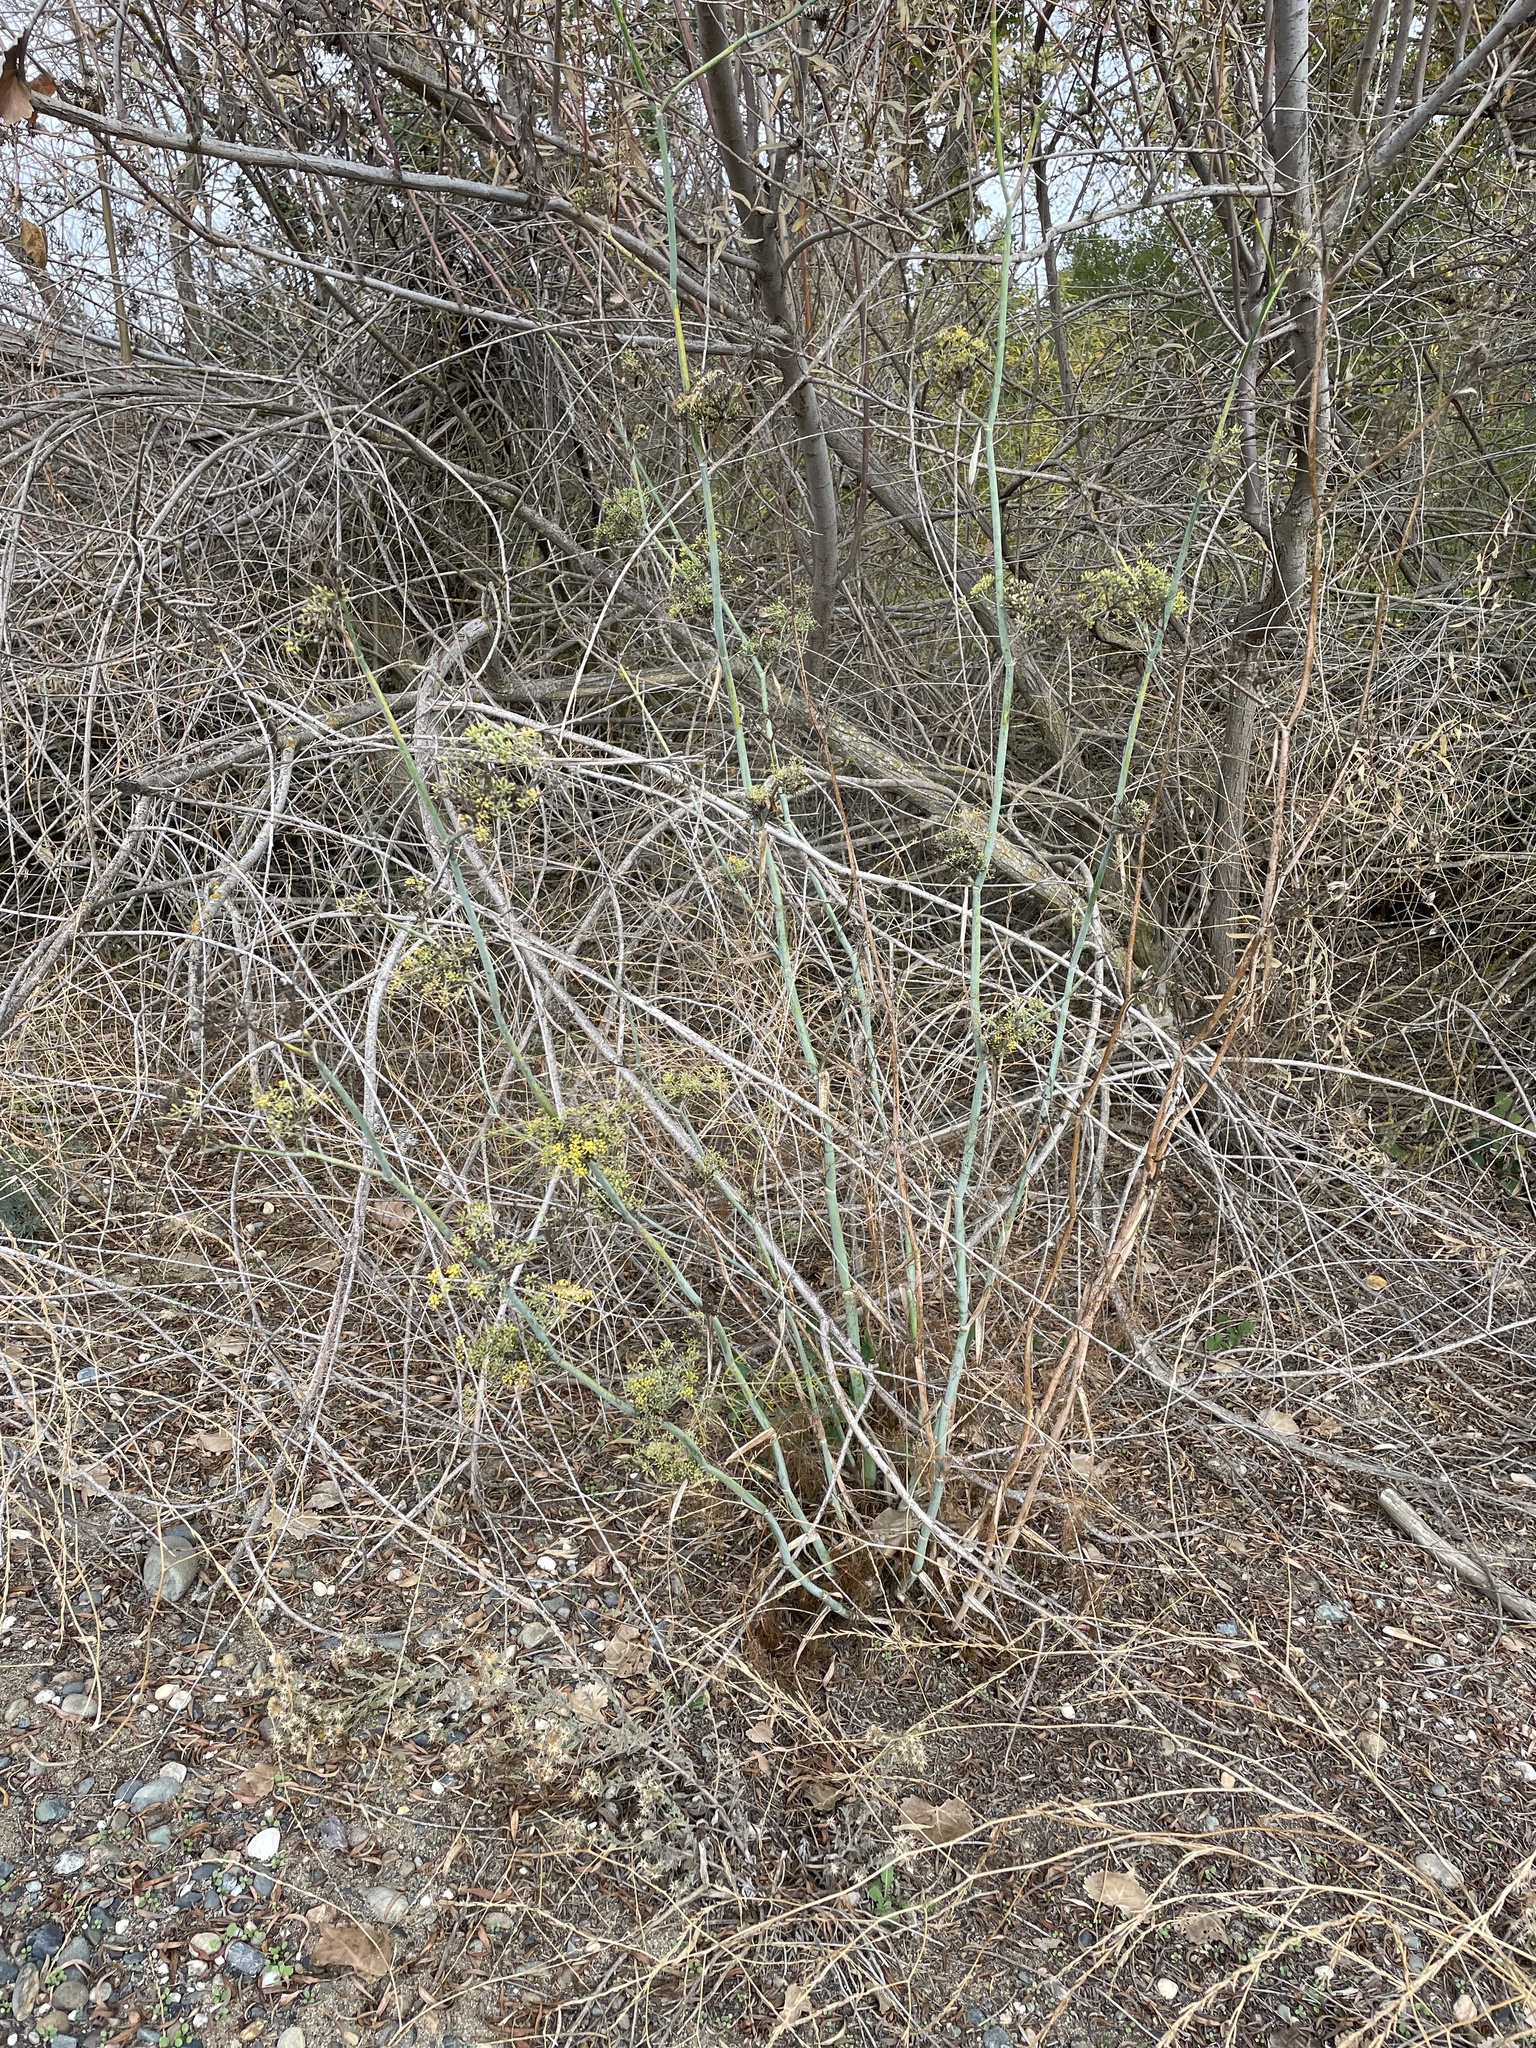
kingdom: Plantae
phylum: Tracheophyta
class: Magnoliopsida
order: Apiales
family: Apiaceae
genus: Foeniculum
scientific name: Foeniculum vulgare
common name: Fennel
